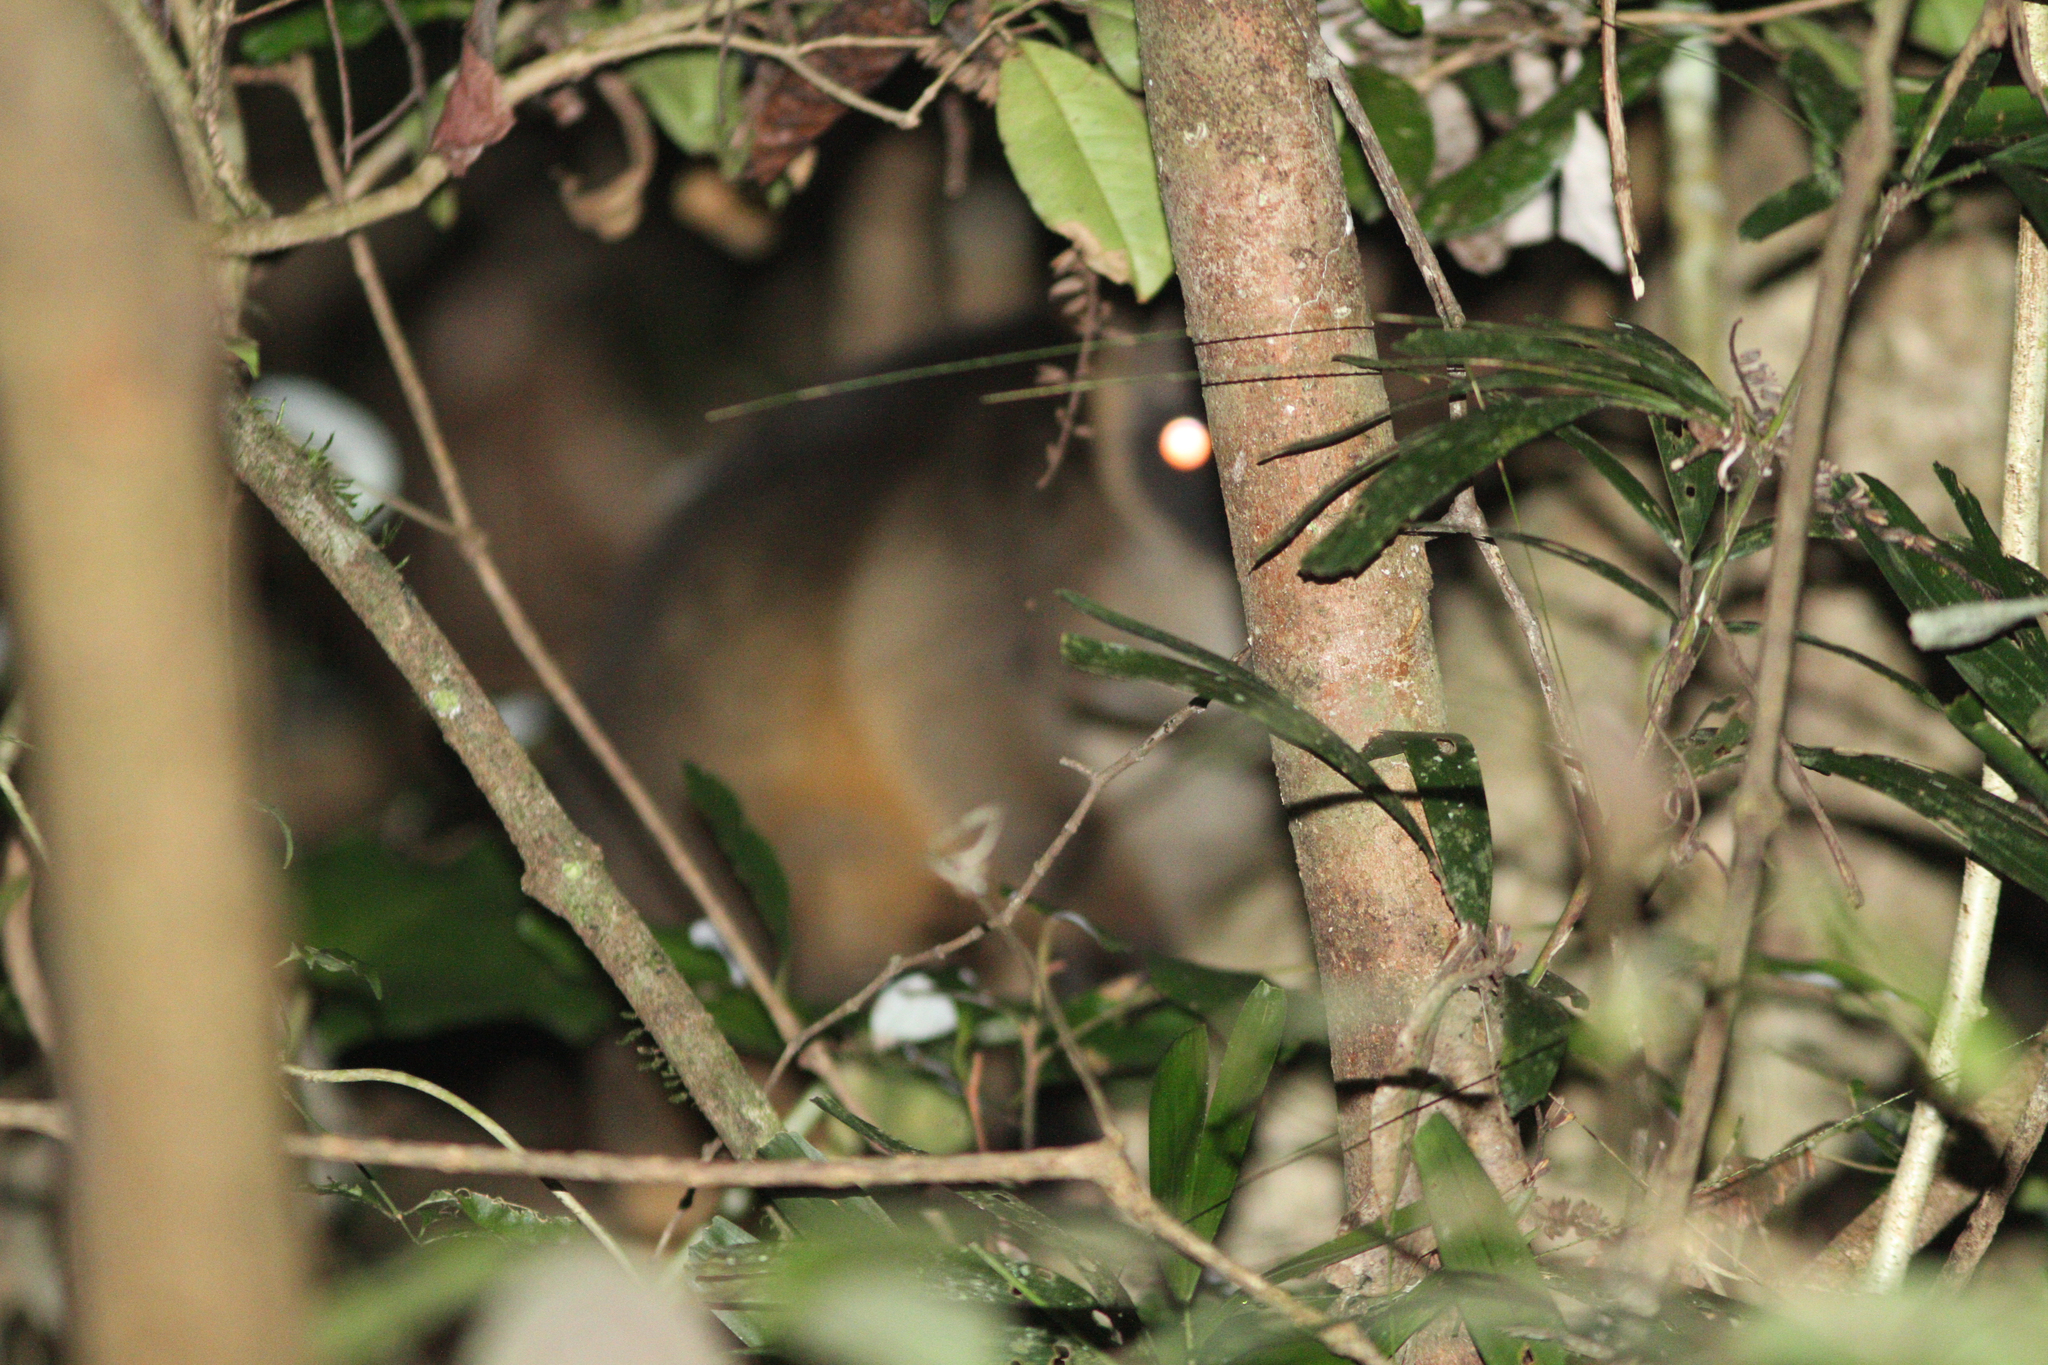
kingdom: Animalia
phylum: Chordata
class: Mammalia
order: Diprotodontia
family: Macropodidae
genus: Dendrolagus
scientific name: Dendrolagus lumholtzi
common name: Lumholtz's tree kangaroo
